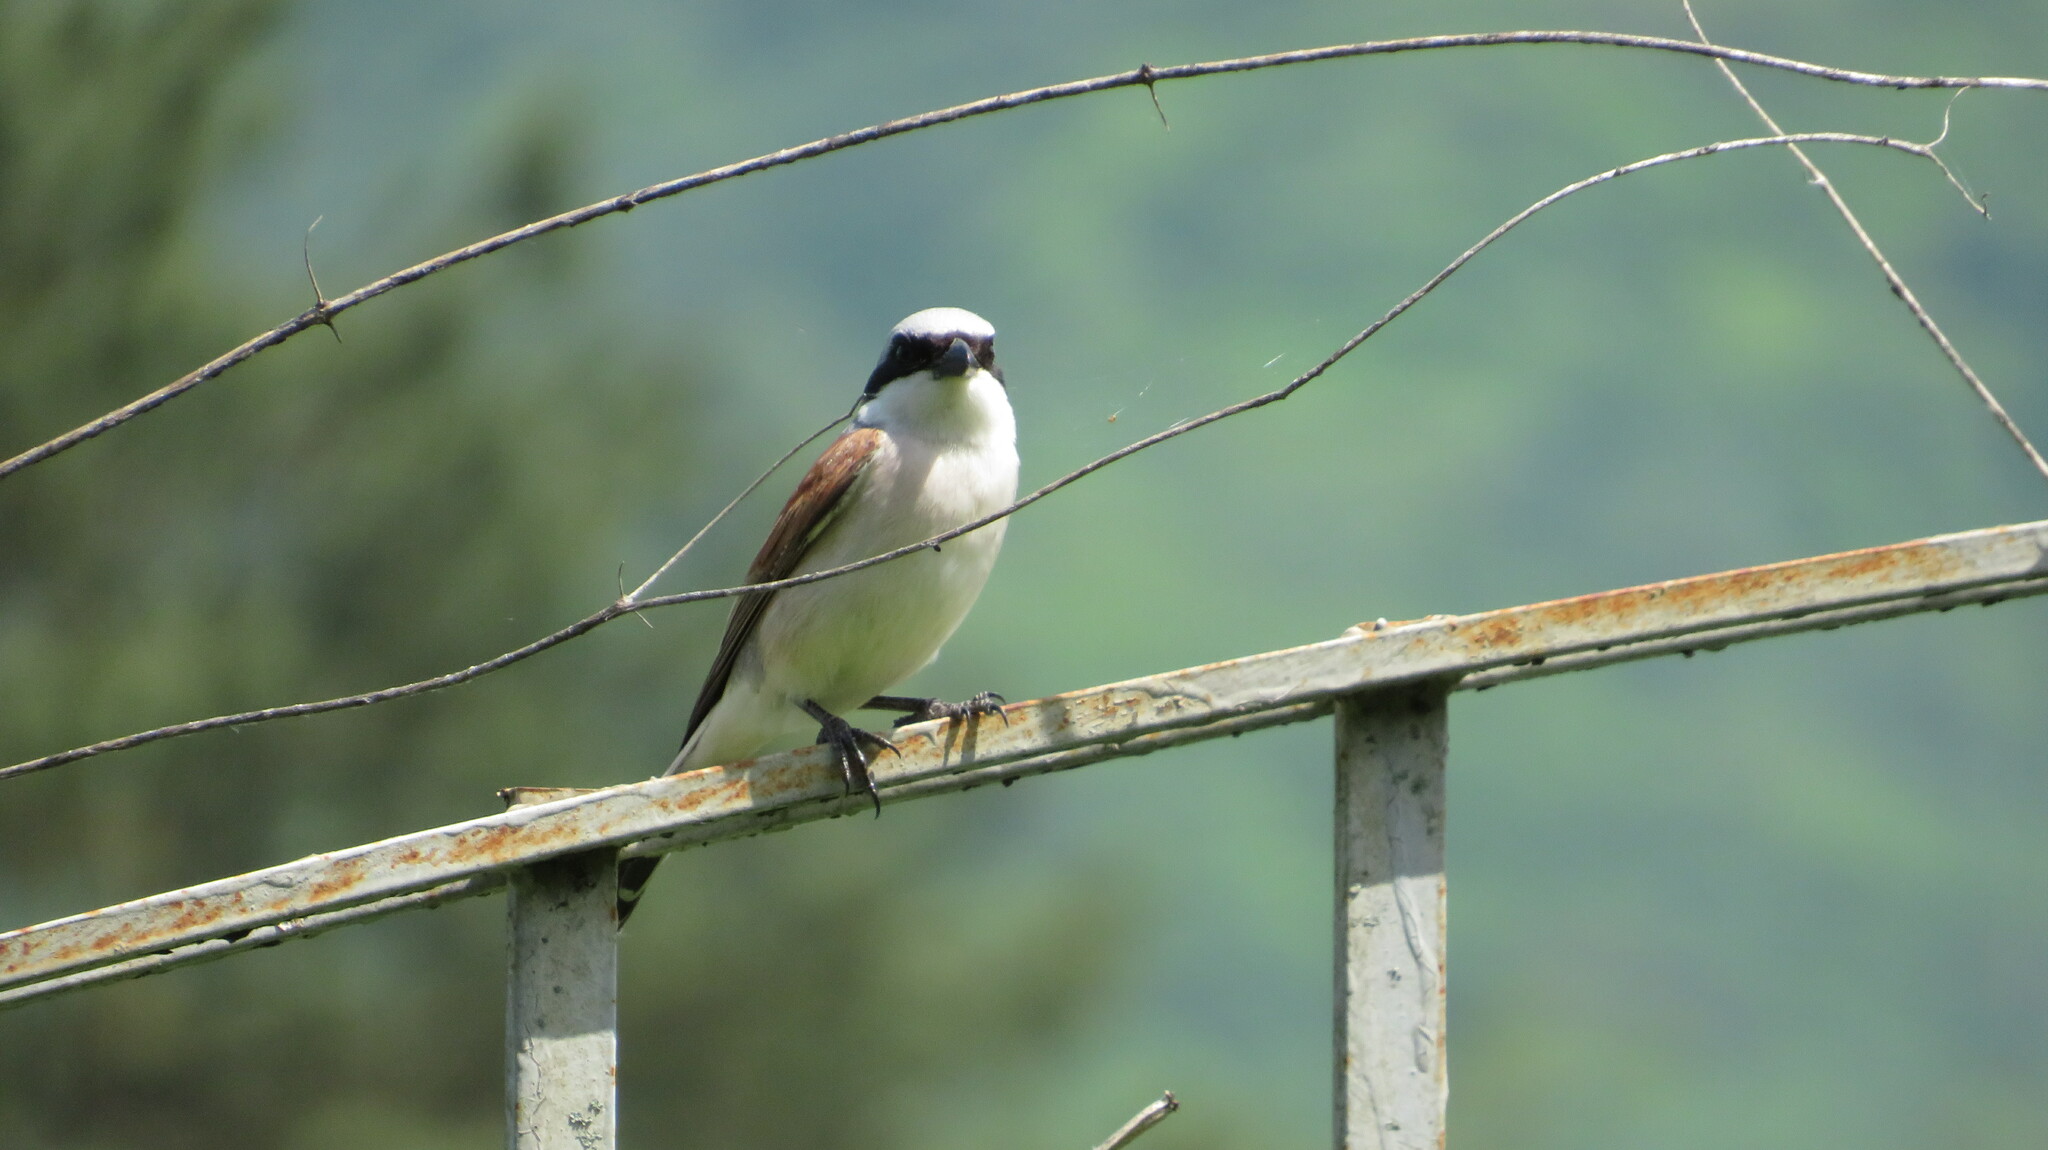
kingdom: Animalia
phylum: Chordata
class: Aves
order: Passeriformes
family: Laniidae
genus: Lanius
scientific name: Lanius collurio
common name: Red-backed shrike
